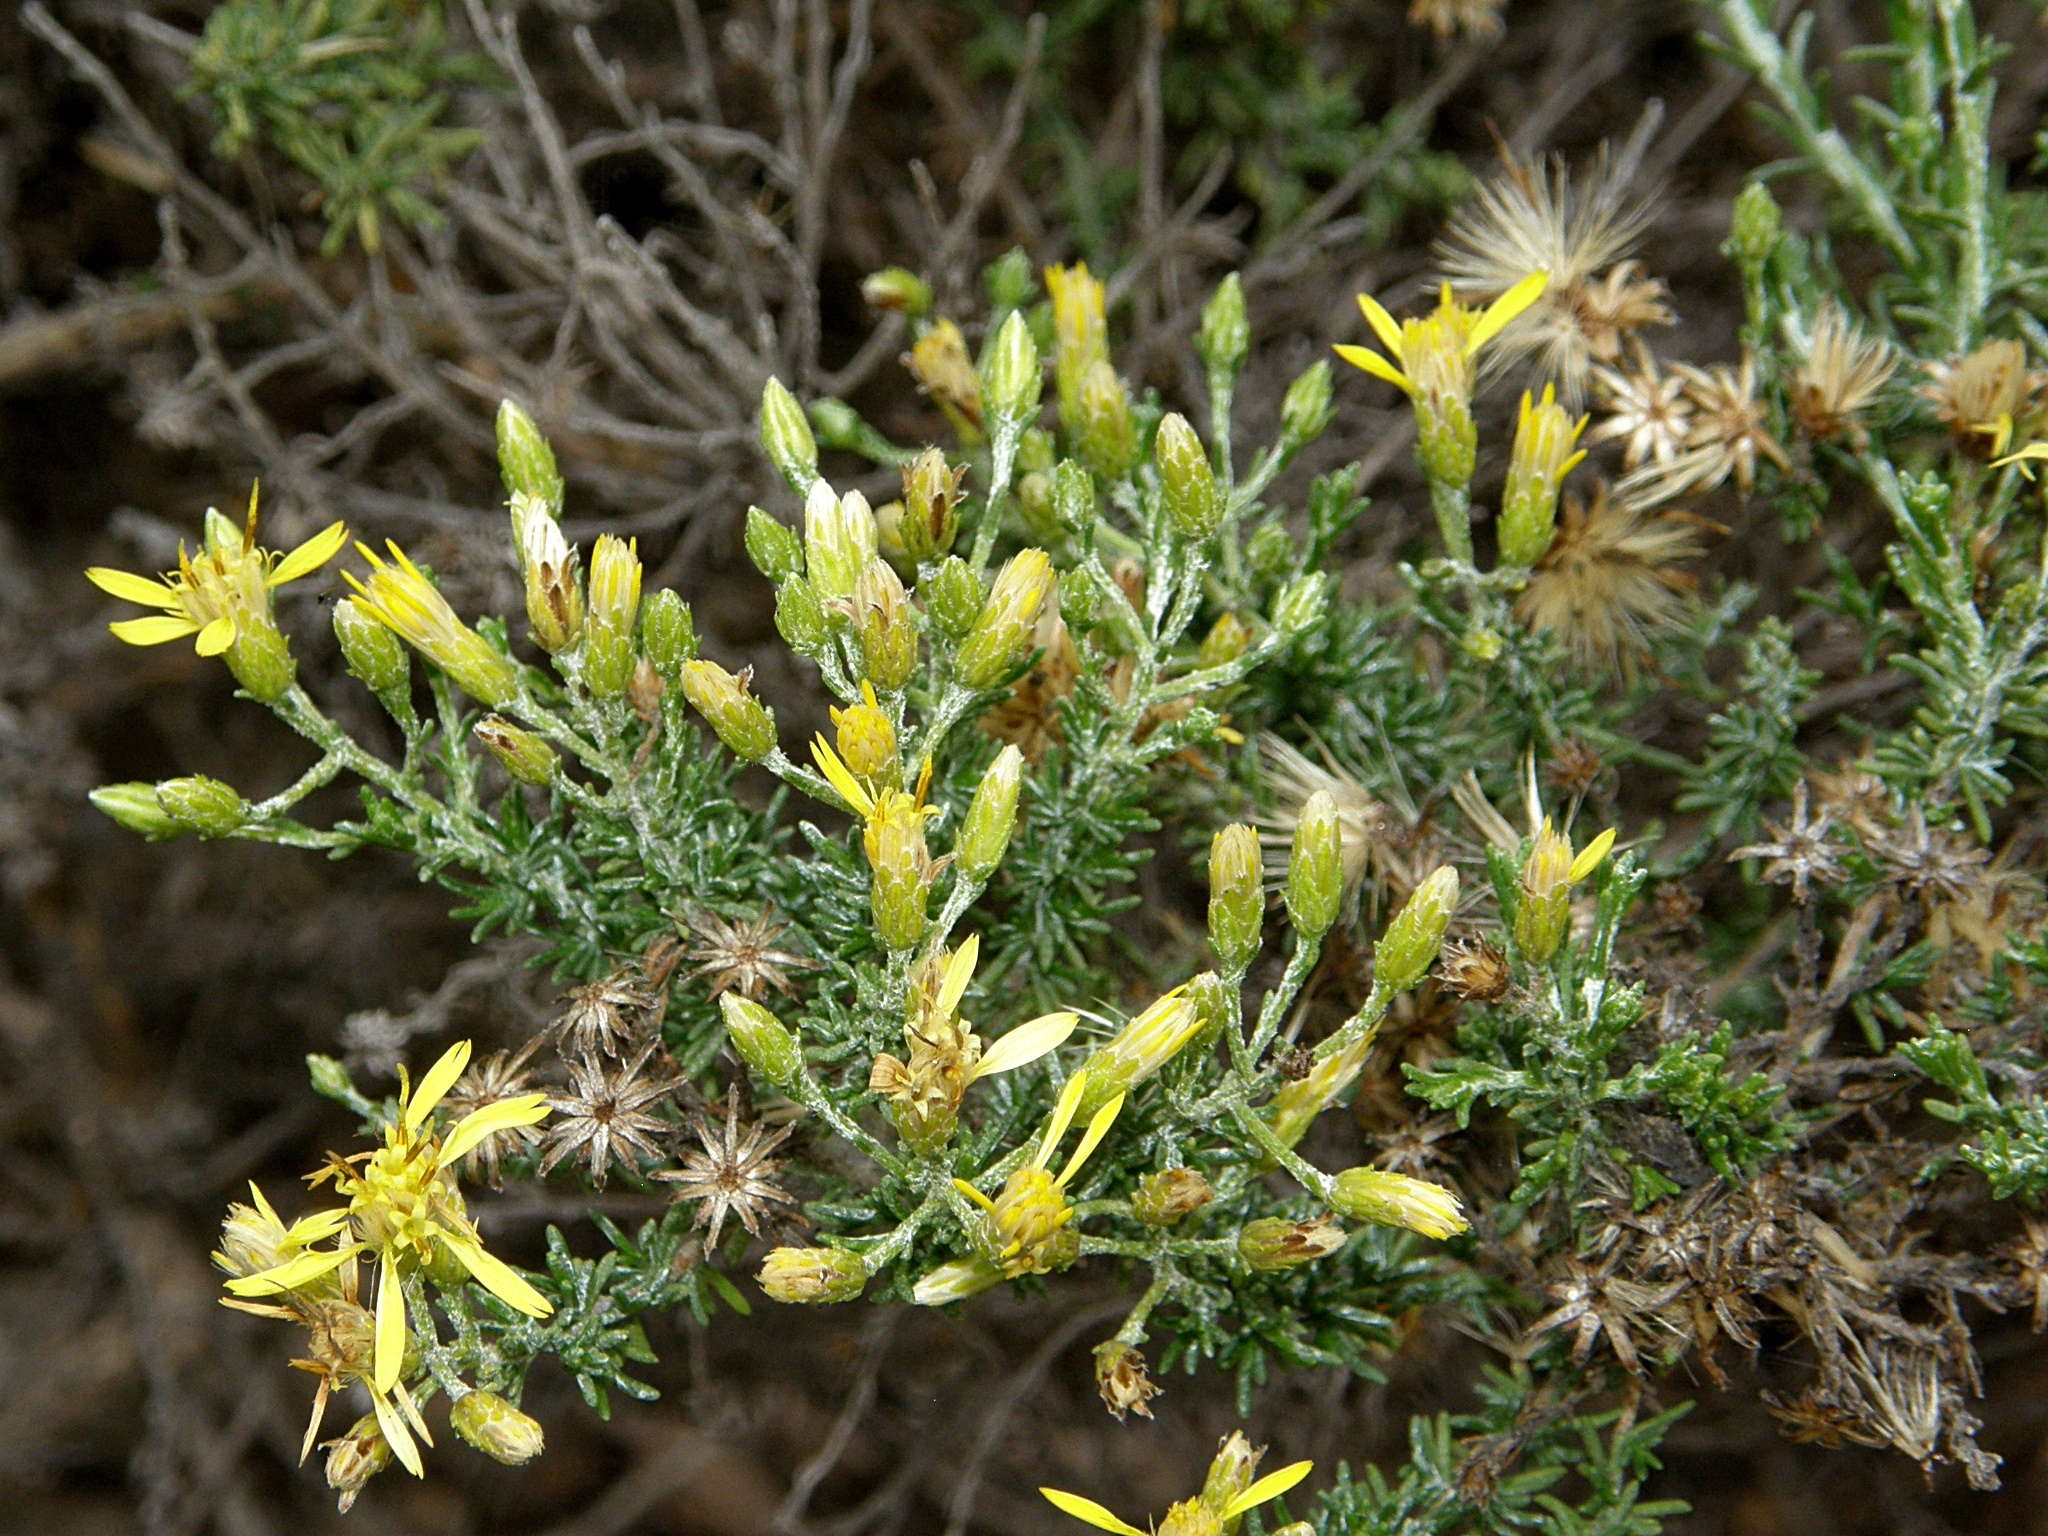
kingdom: Plantae
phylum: Tracheophyta
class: Magnoliopsida
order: Asterales
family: Asteraceae
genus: Ericameria
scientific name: Ericameria ericoides
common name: California goldenbush
